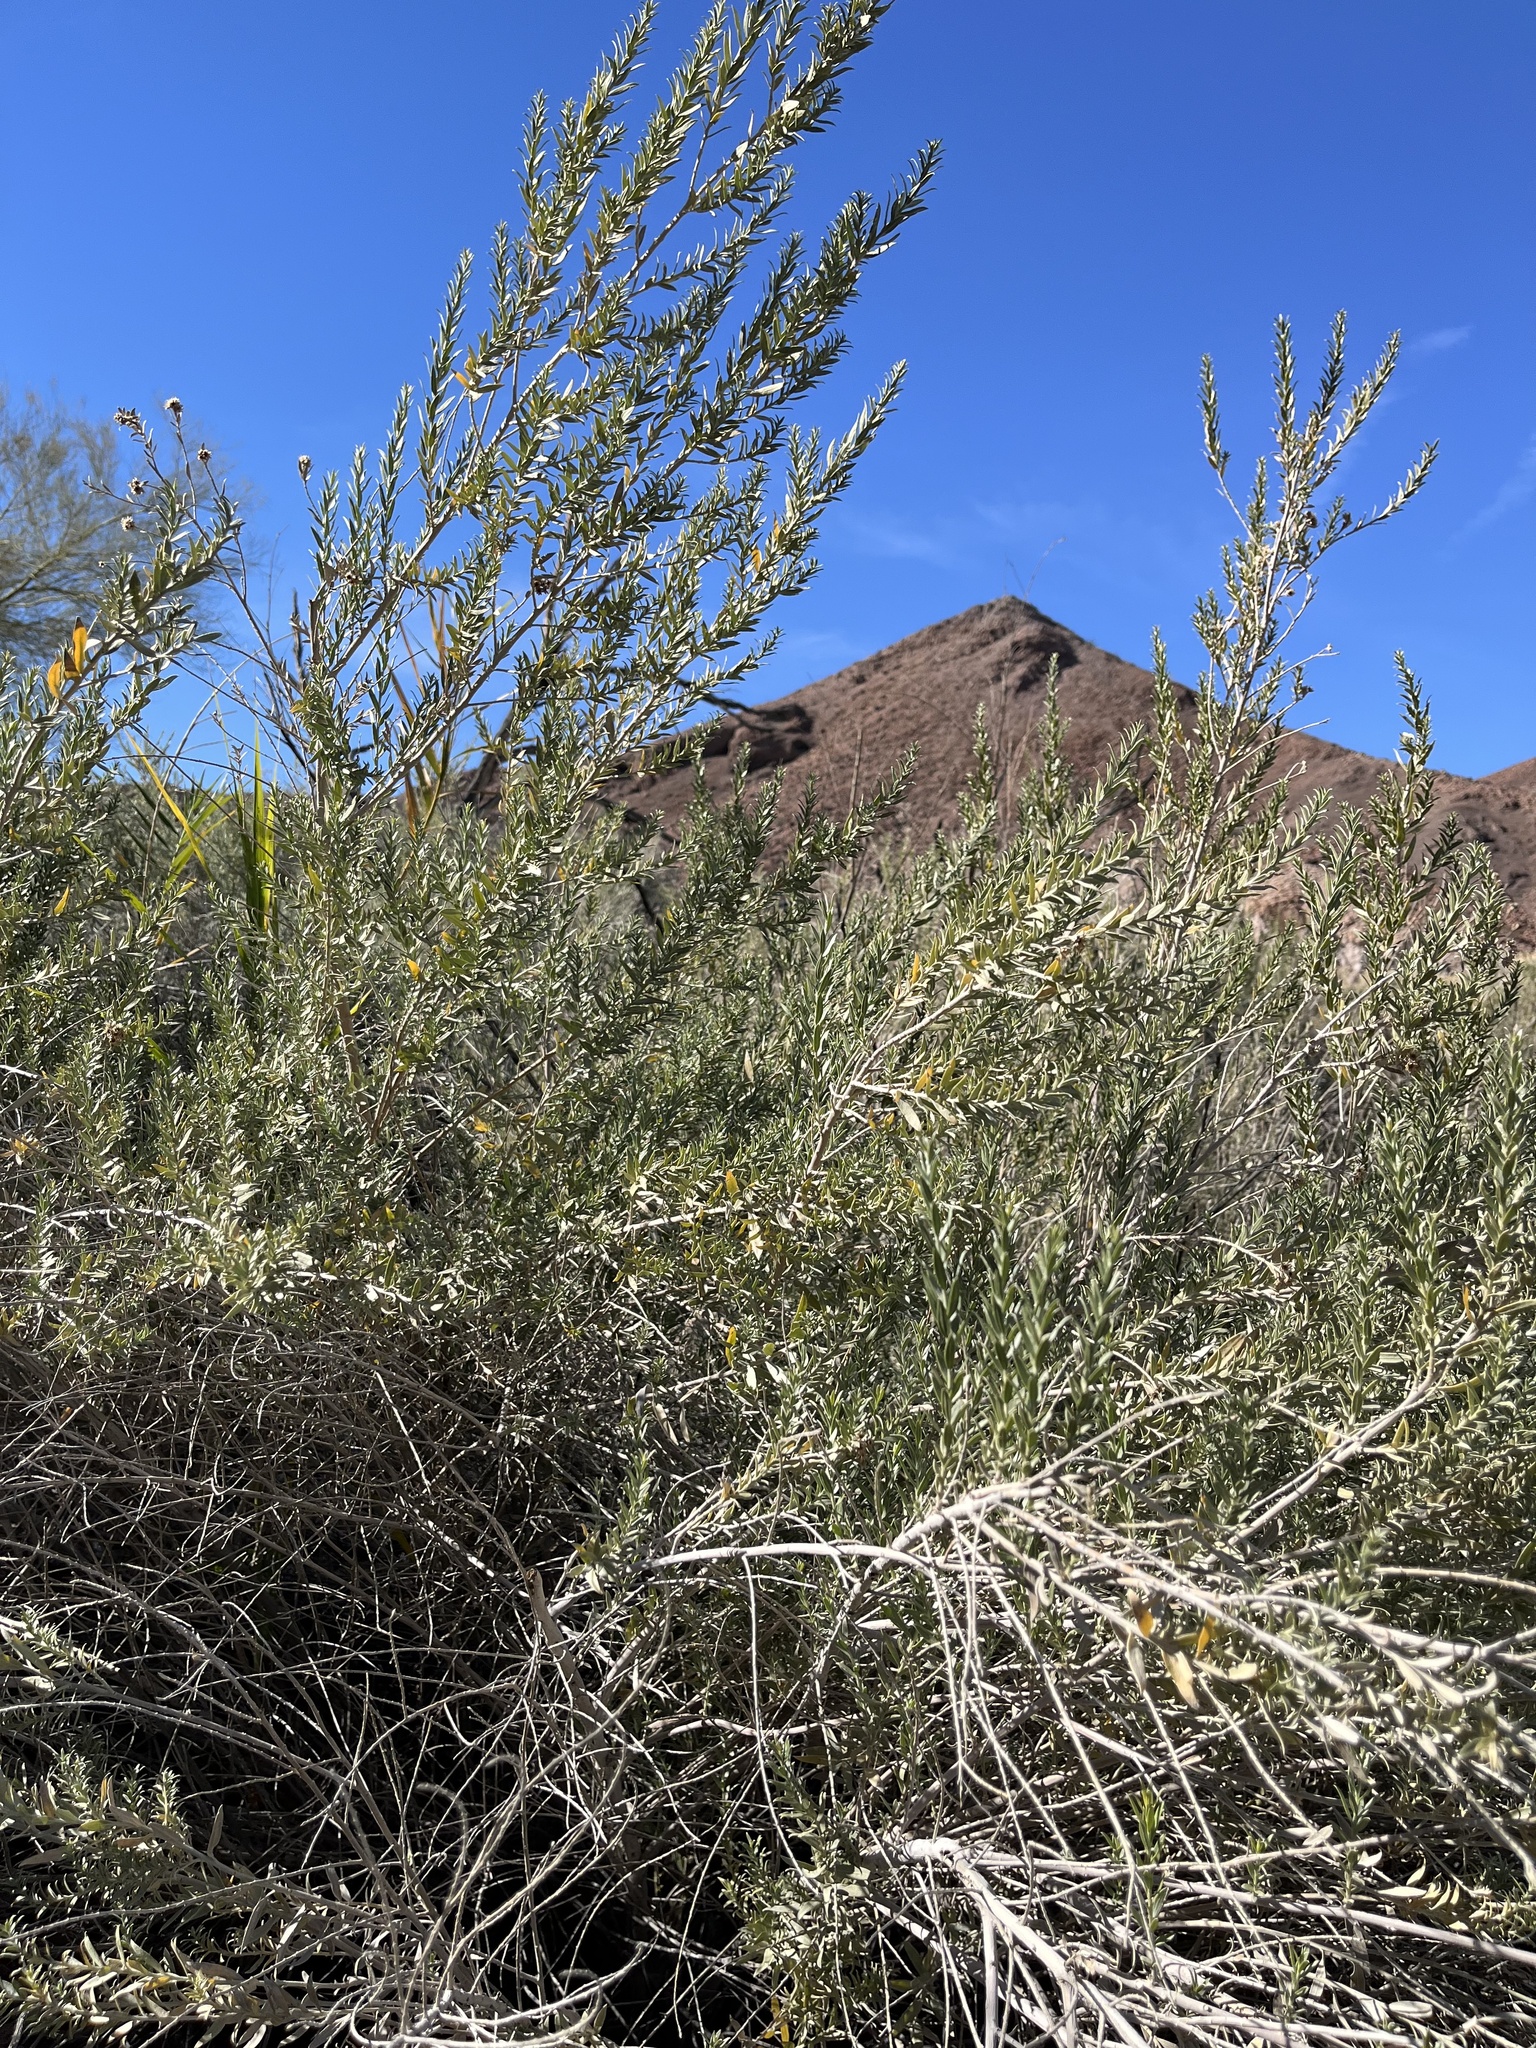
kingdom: Plantae
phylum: Tracheophyta
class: Magnoliopsida
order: Asterales
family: Asteraceae
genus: Pluchea
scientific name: Pluchea sericea
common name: Arrow-weed
